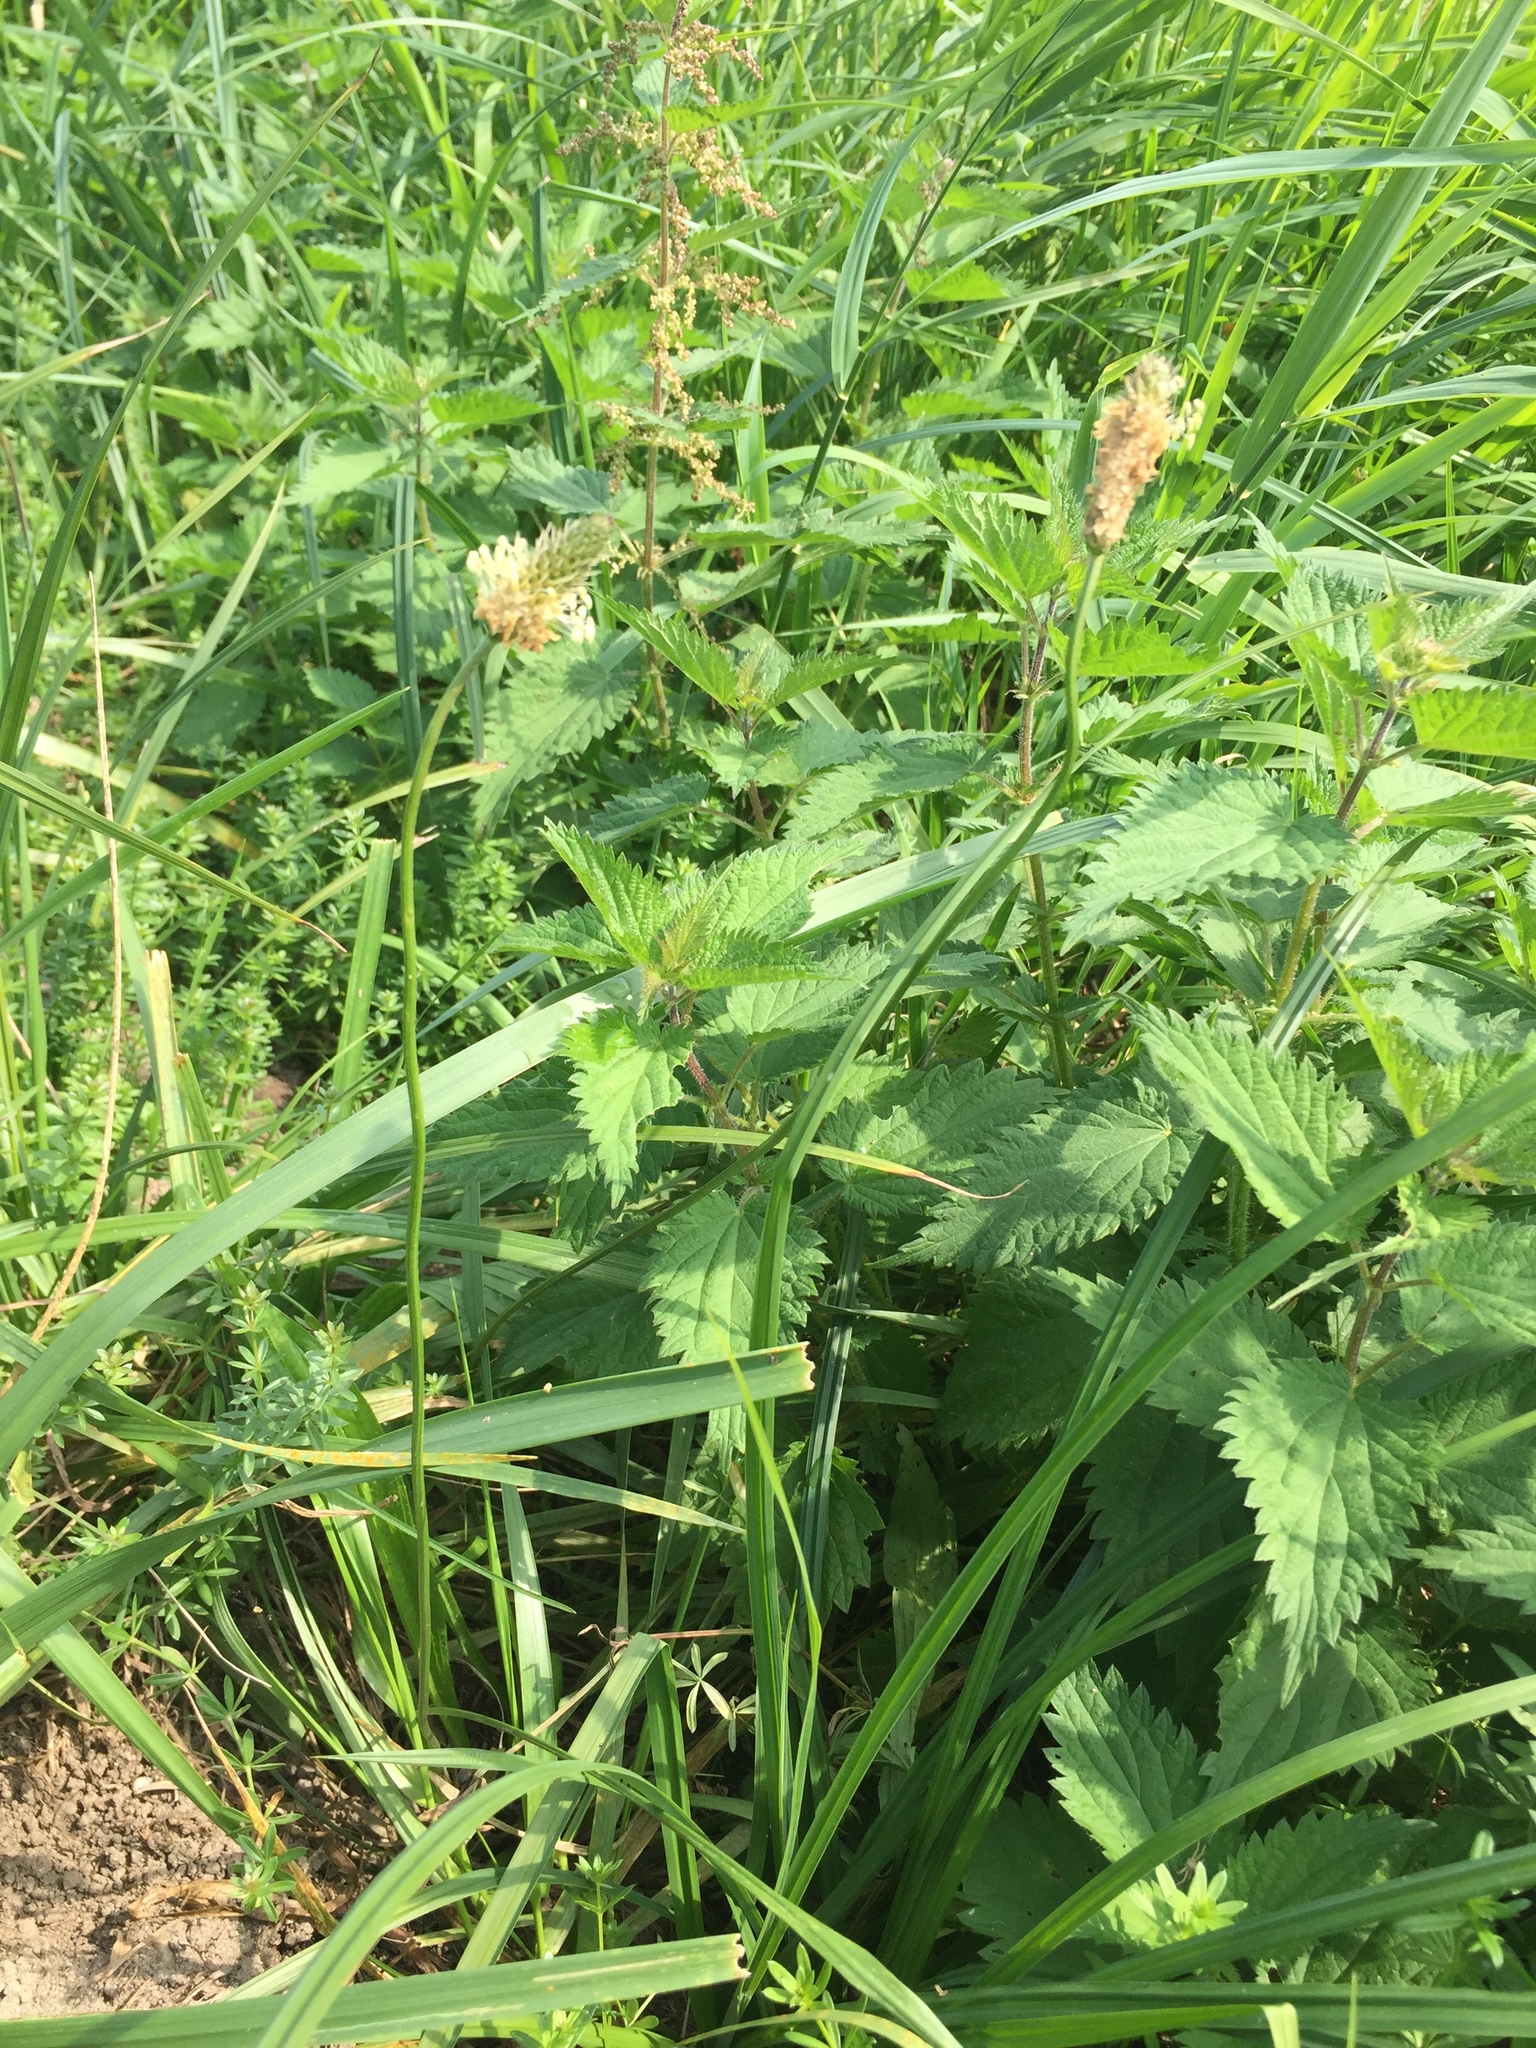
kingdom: Plantae
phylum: Tracheophyta
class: Magnoliopsida
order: Lamiales
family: Plantaginaceae
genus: Plantago
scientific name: Plantago lanceolata
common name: Ribwort plantain
